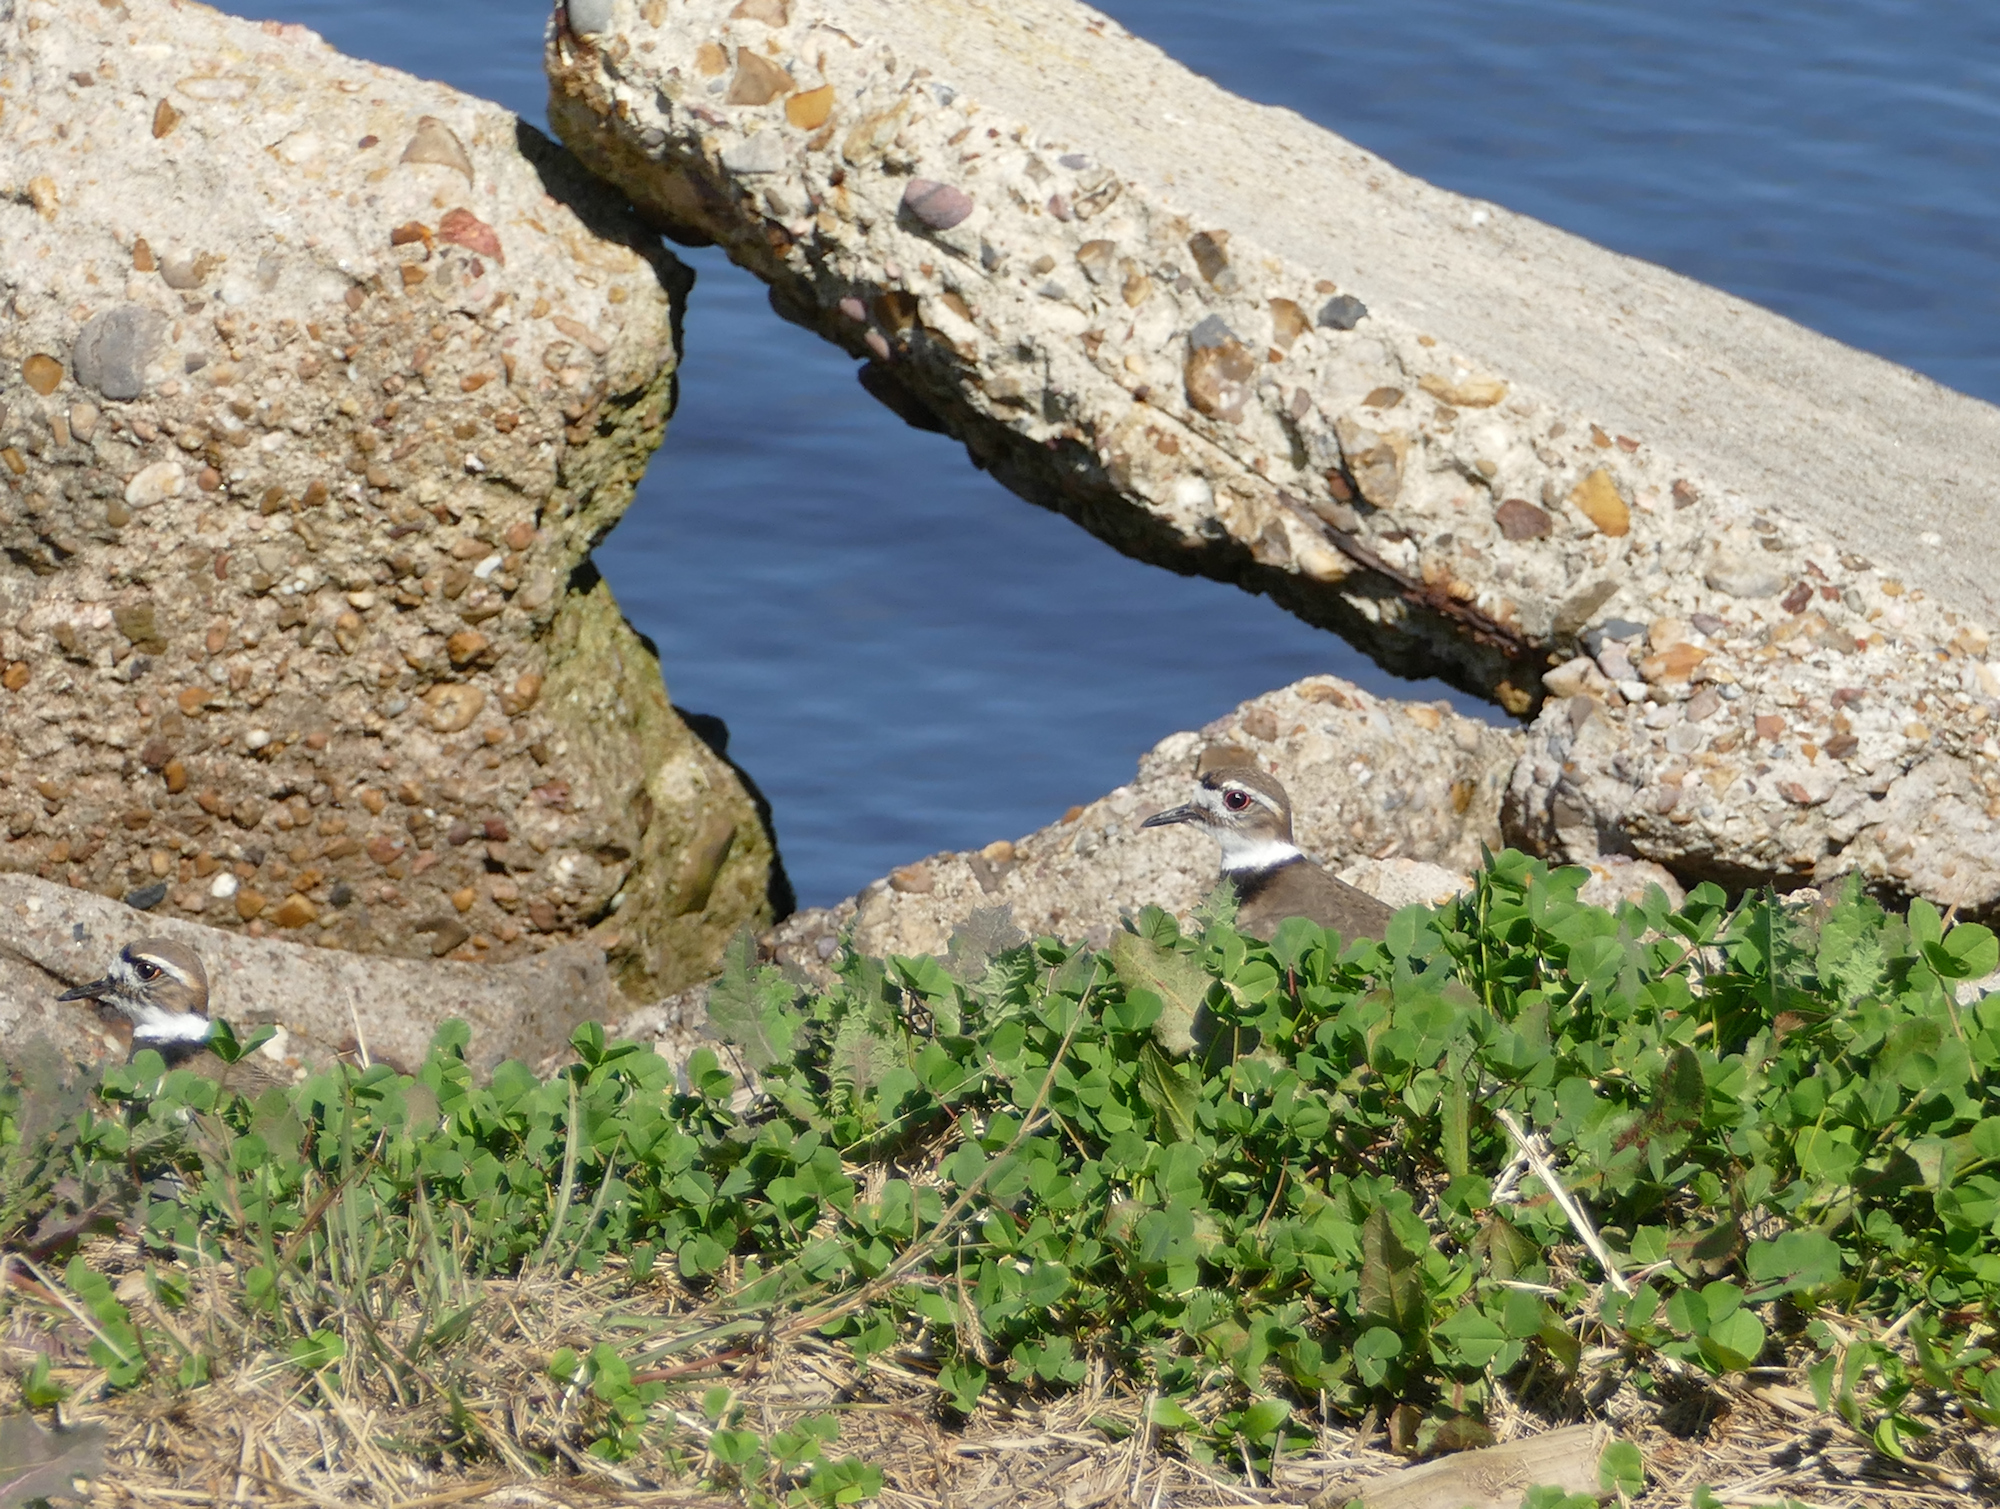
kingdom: Animalia
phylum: Chordata
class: Aves
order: Charadriiformes
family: Charadriidae
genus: Charadrius
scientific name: Charadrius vociferus
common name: Killdeer
